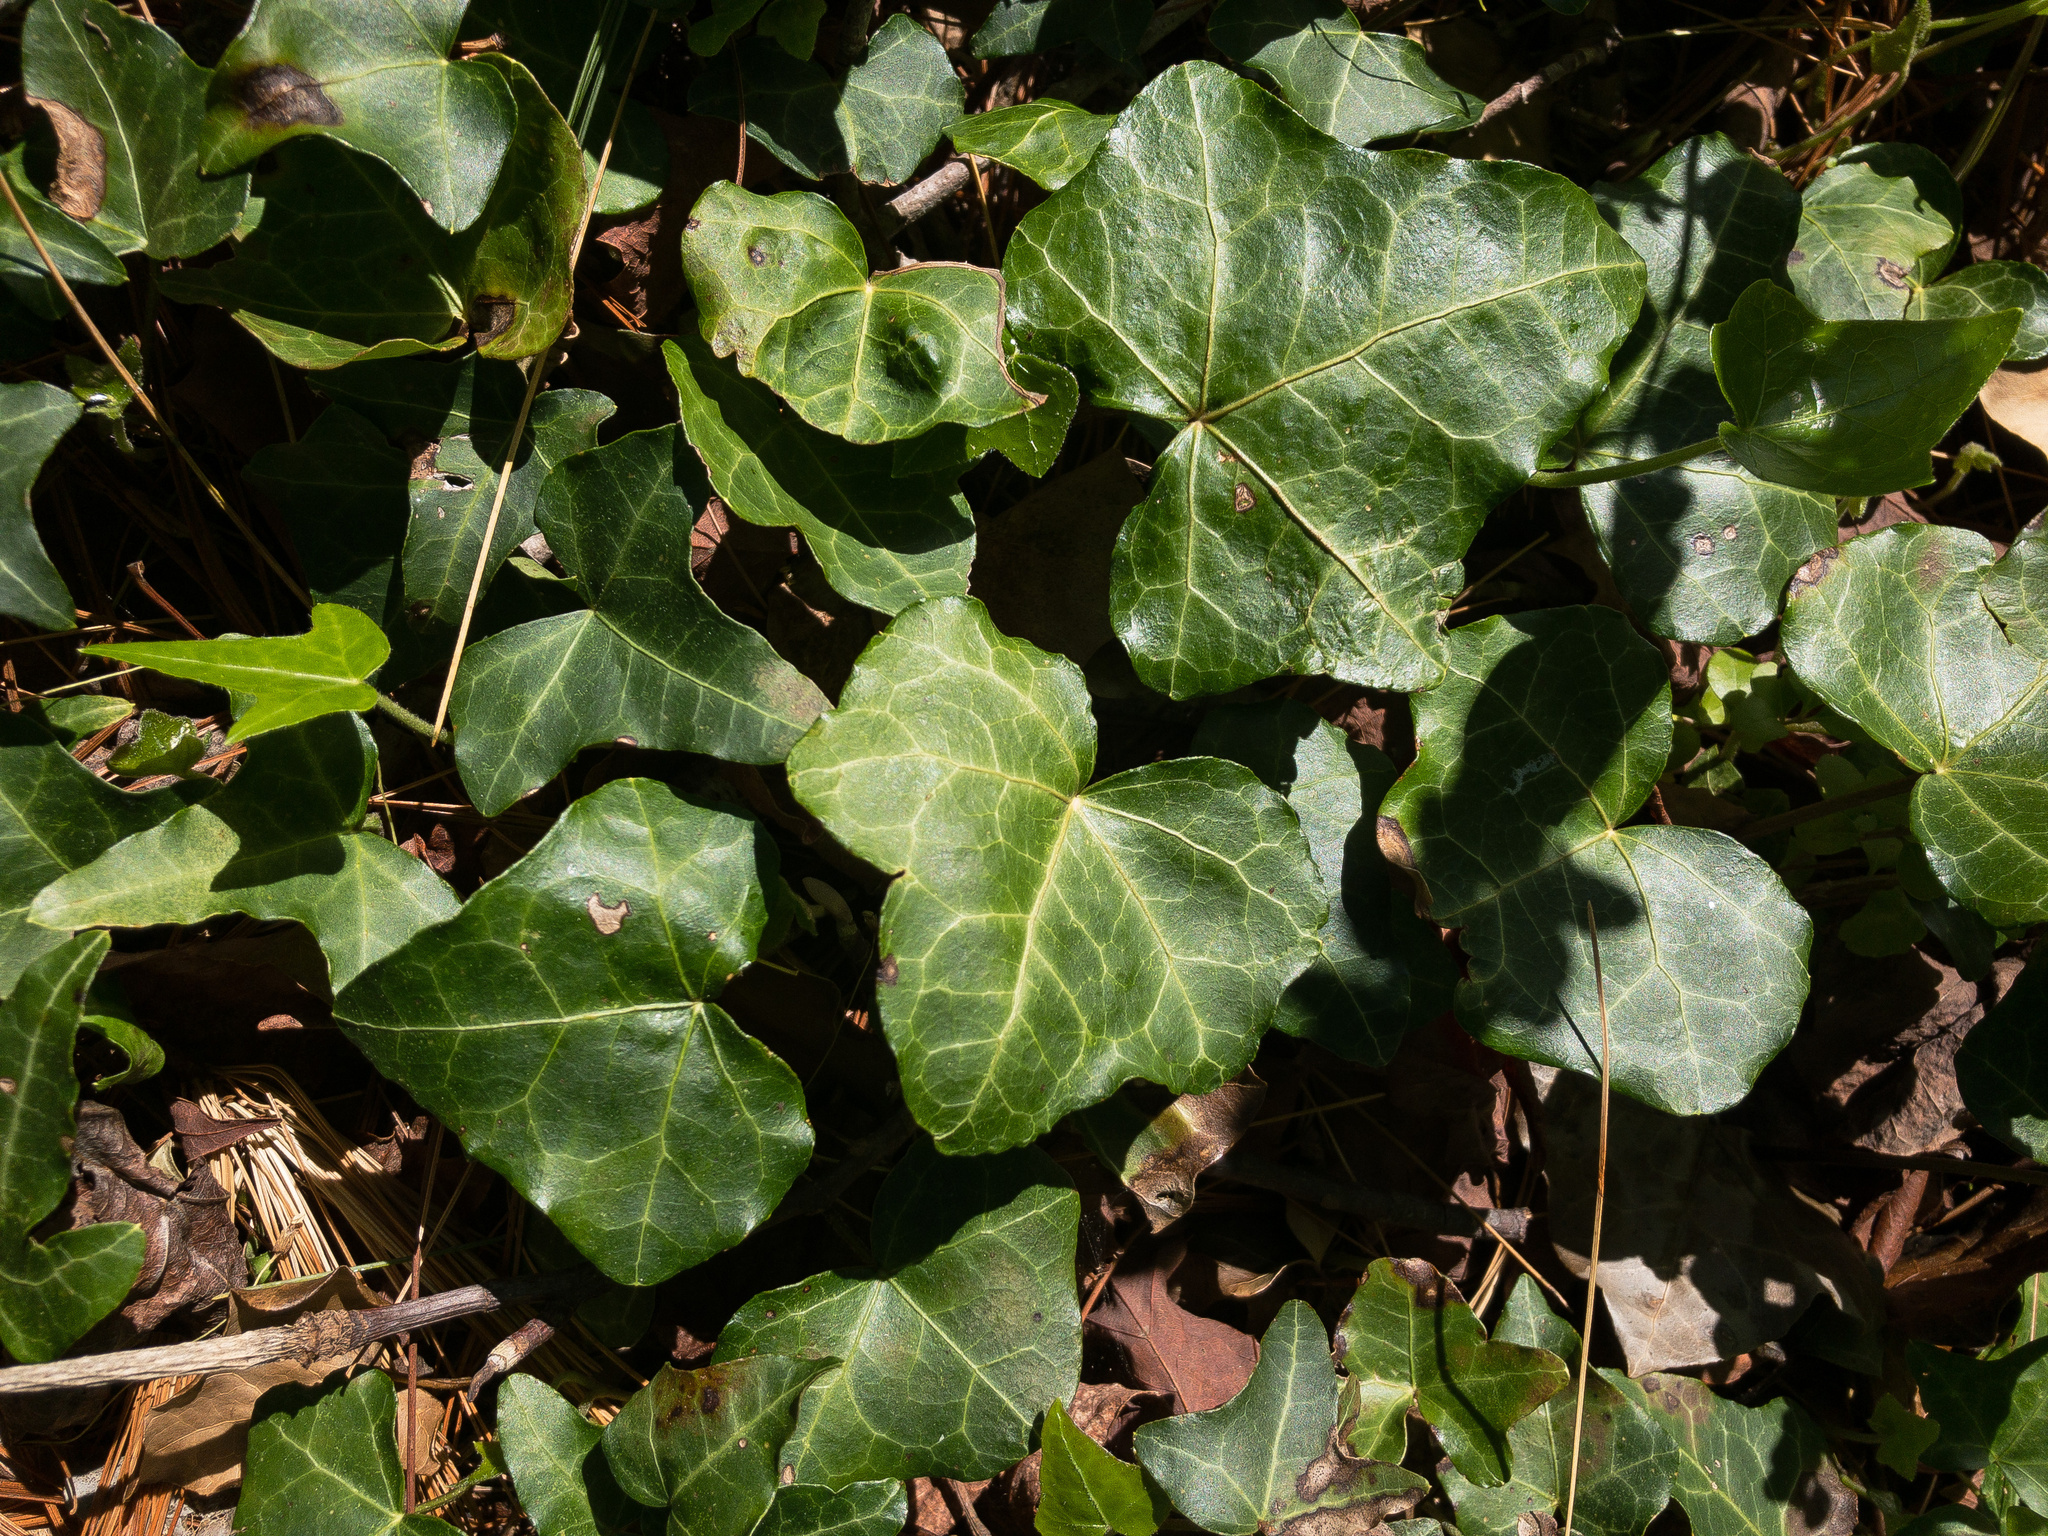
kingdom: Plantae
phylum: Tracheophyta
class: Magnoliopsida
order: Apiales
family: Araliaceae
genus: Hedera
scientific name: Hedera helix
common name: Ivy
